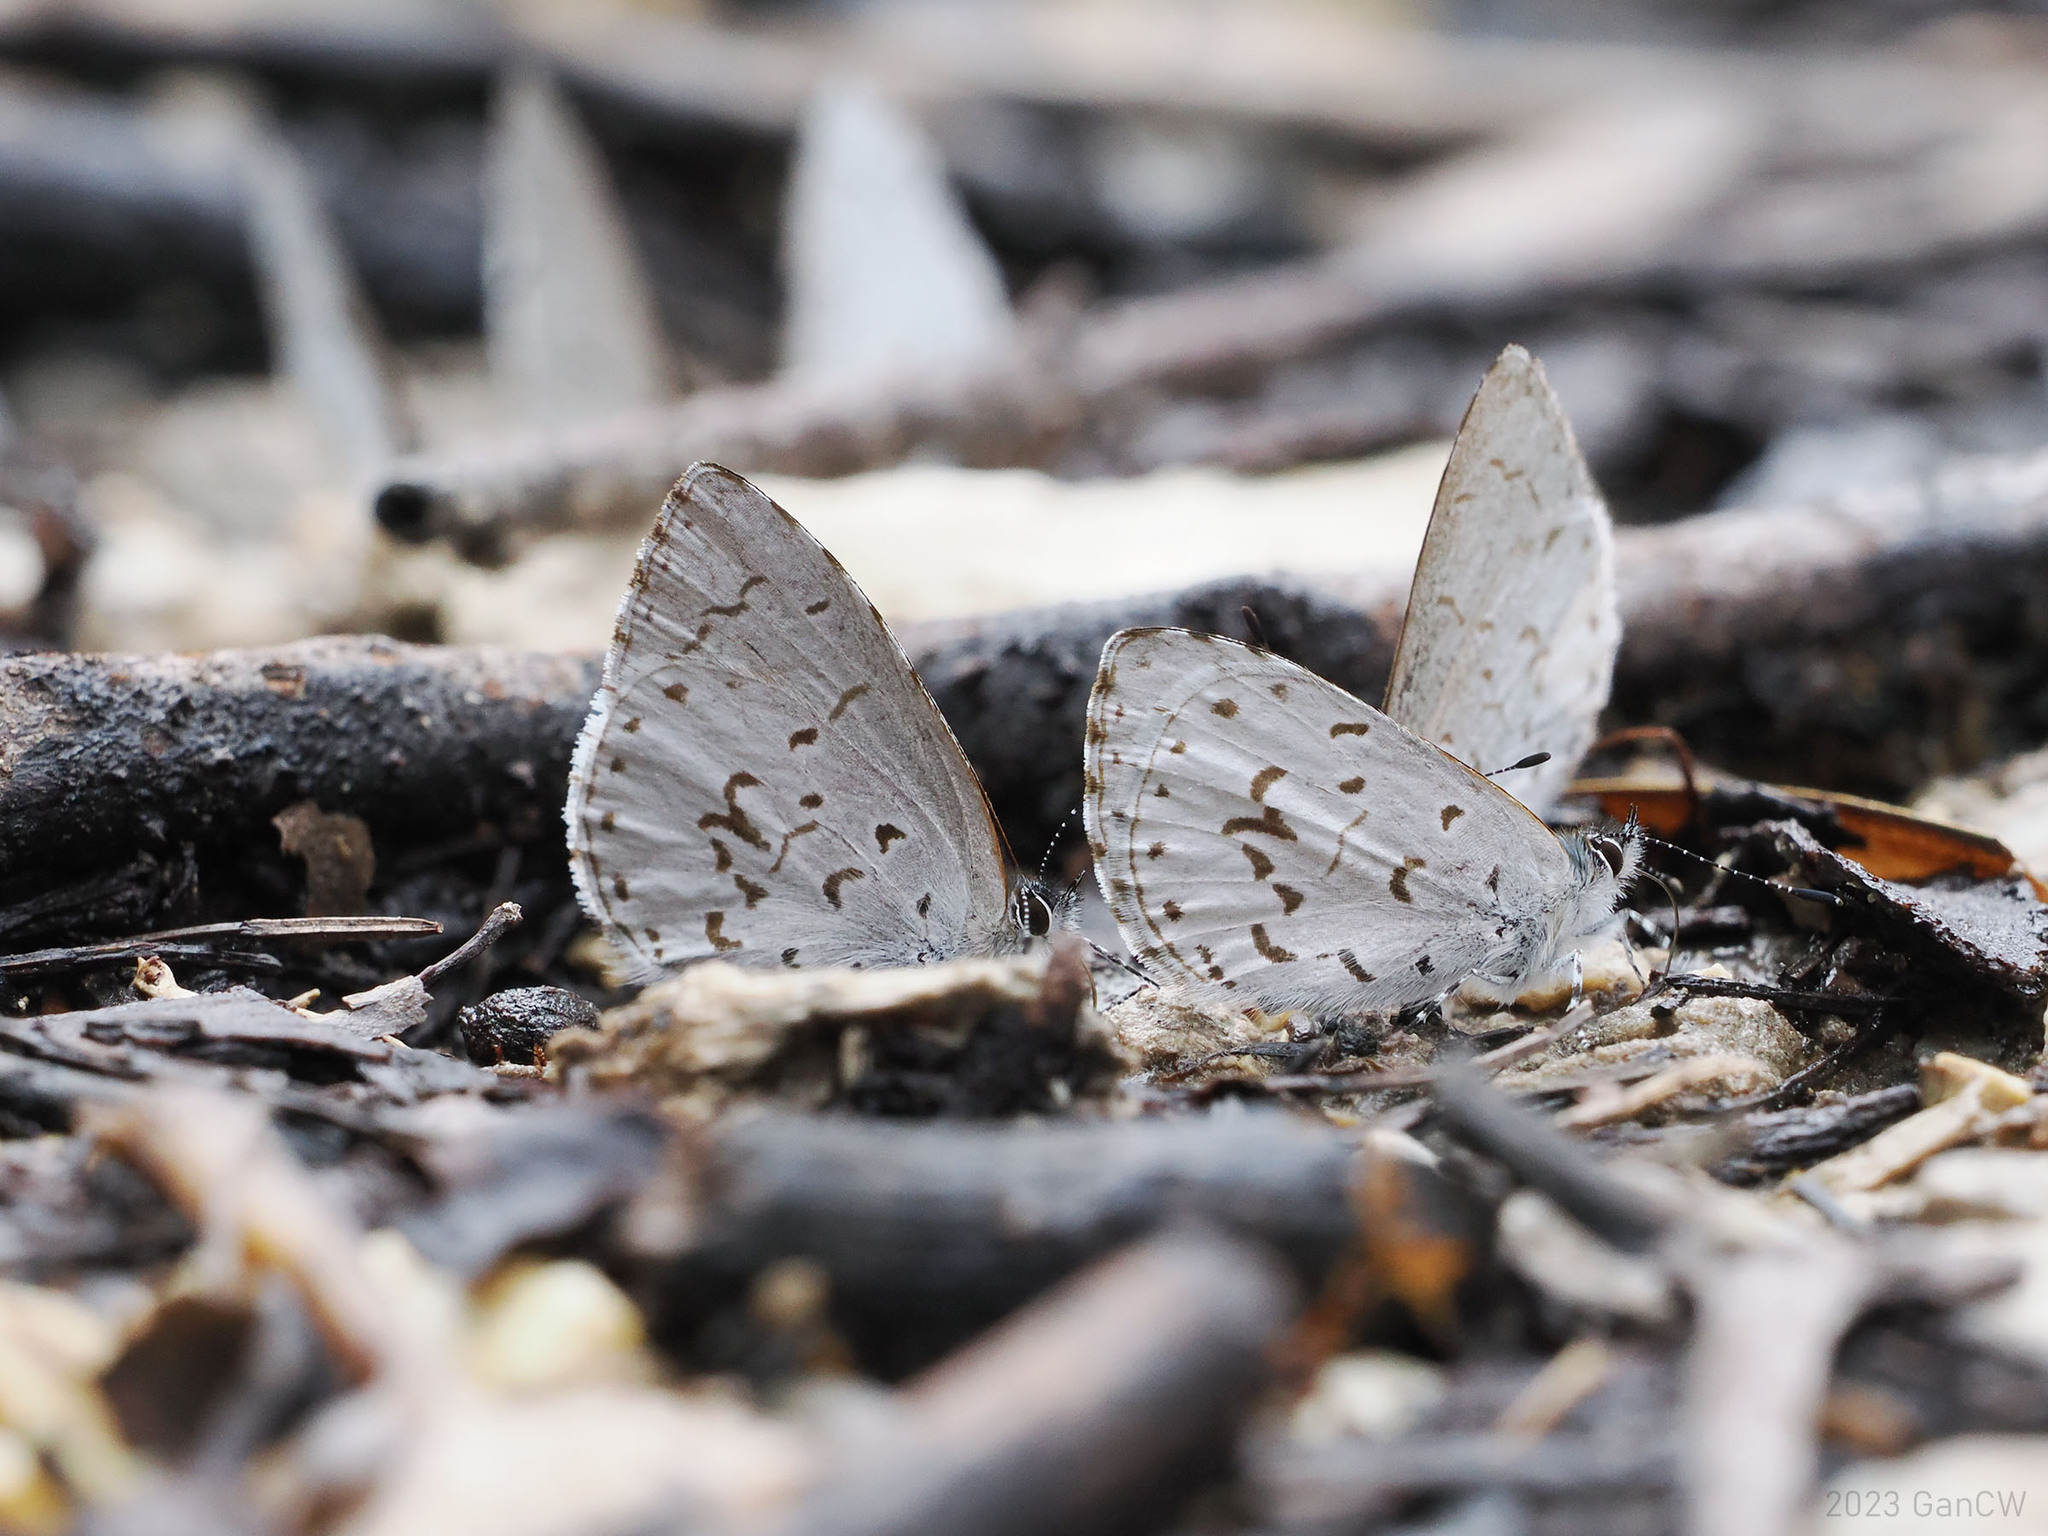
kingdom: Animalia
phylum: Arthropoda
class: Insecta
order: Lepidoptera
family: Lycaenidae
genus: Udara
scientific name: Udara drucei
